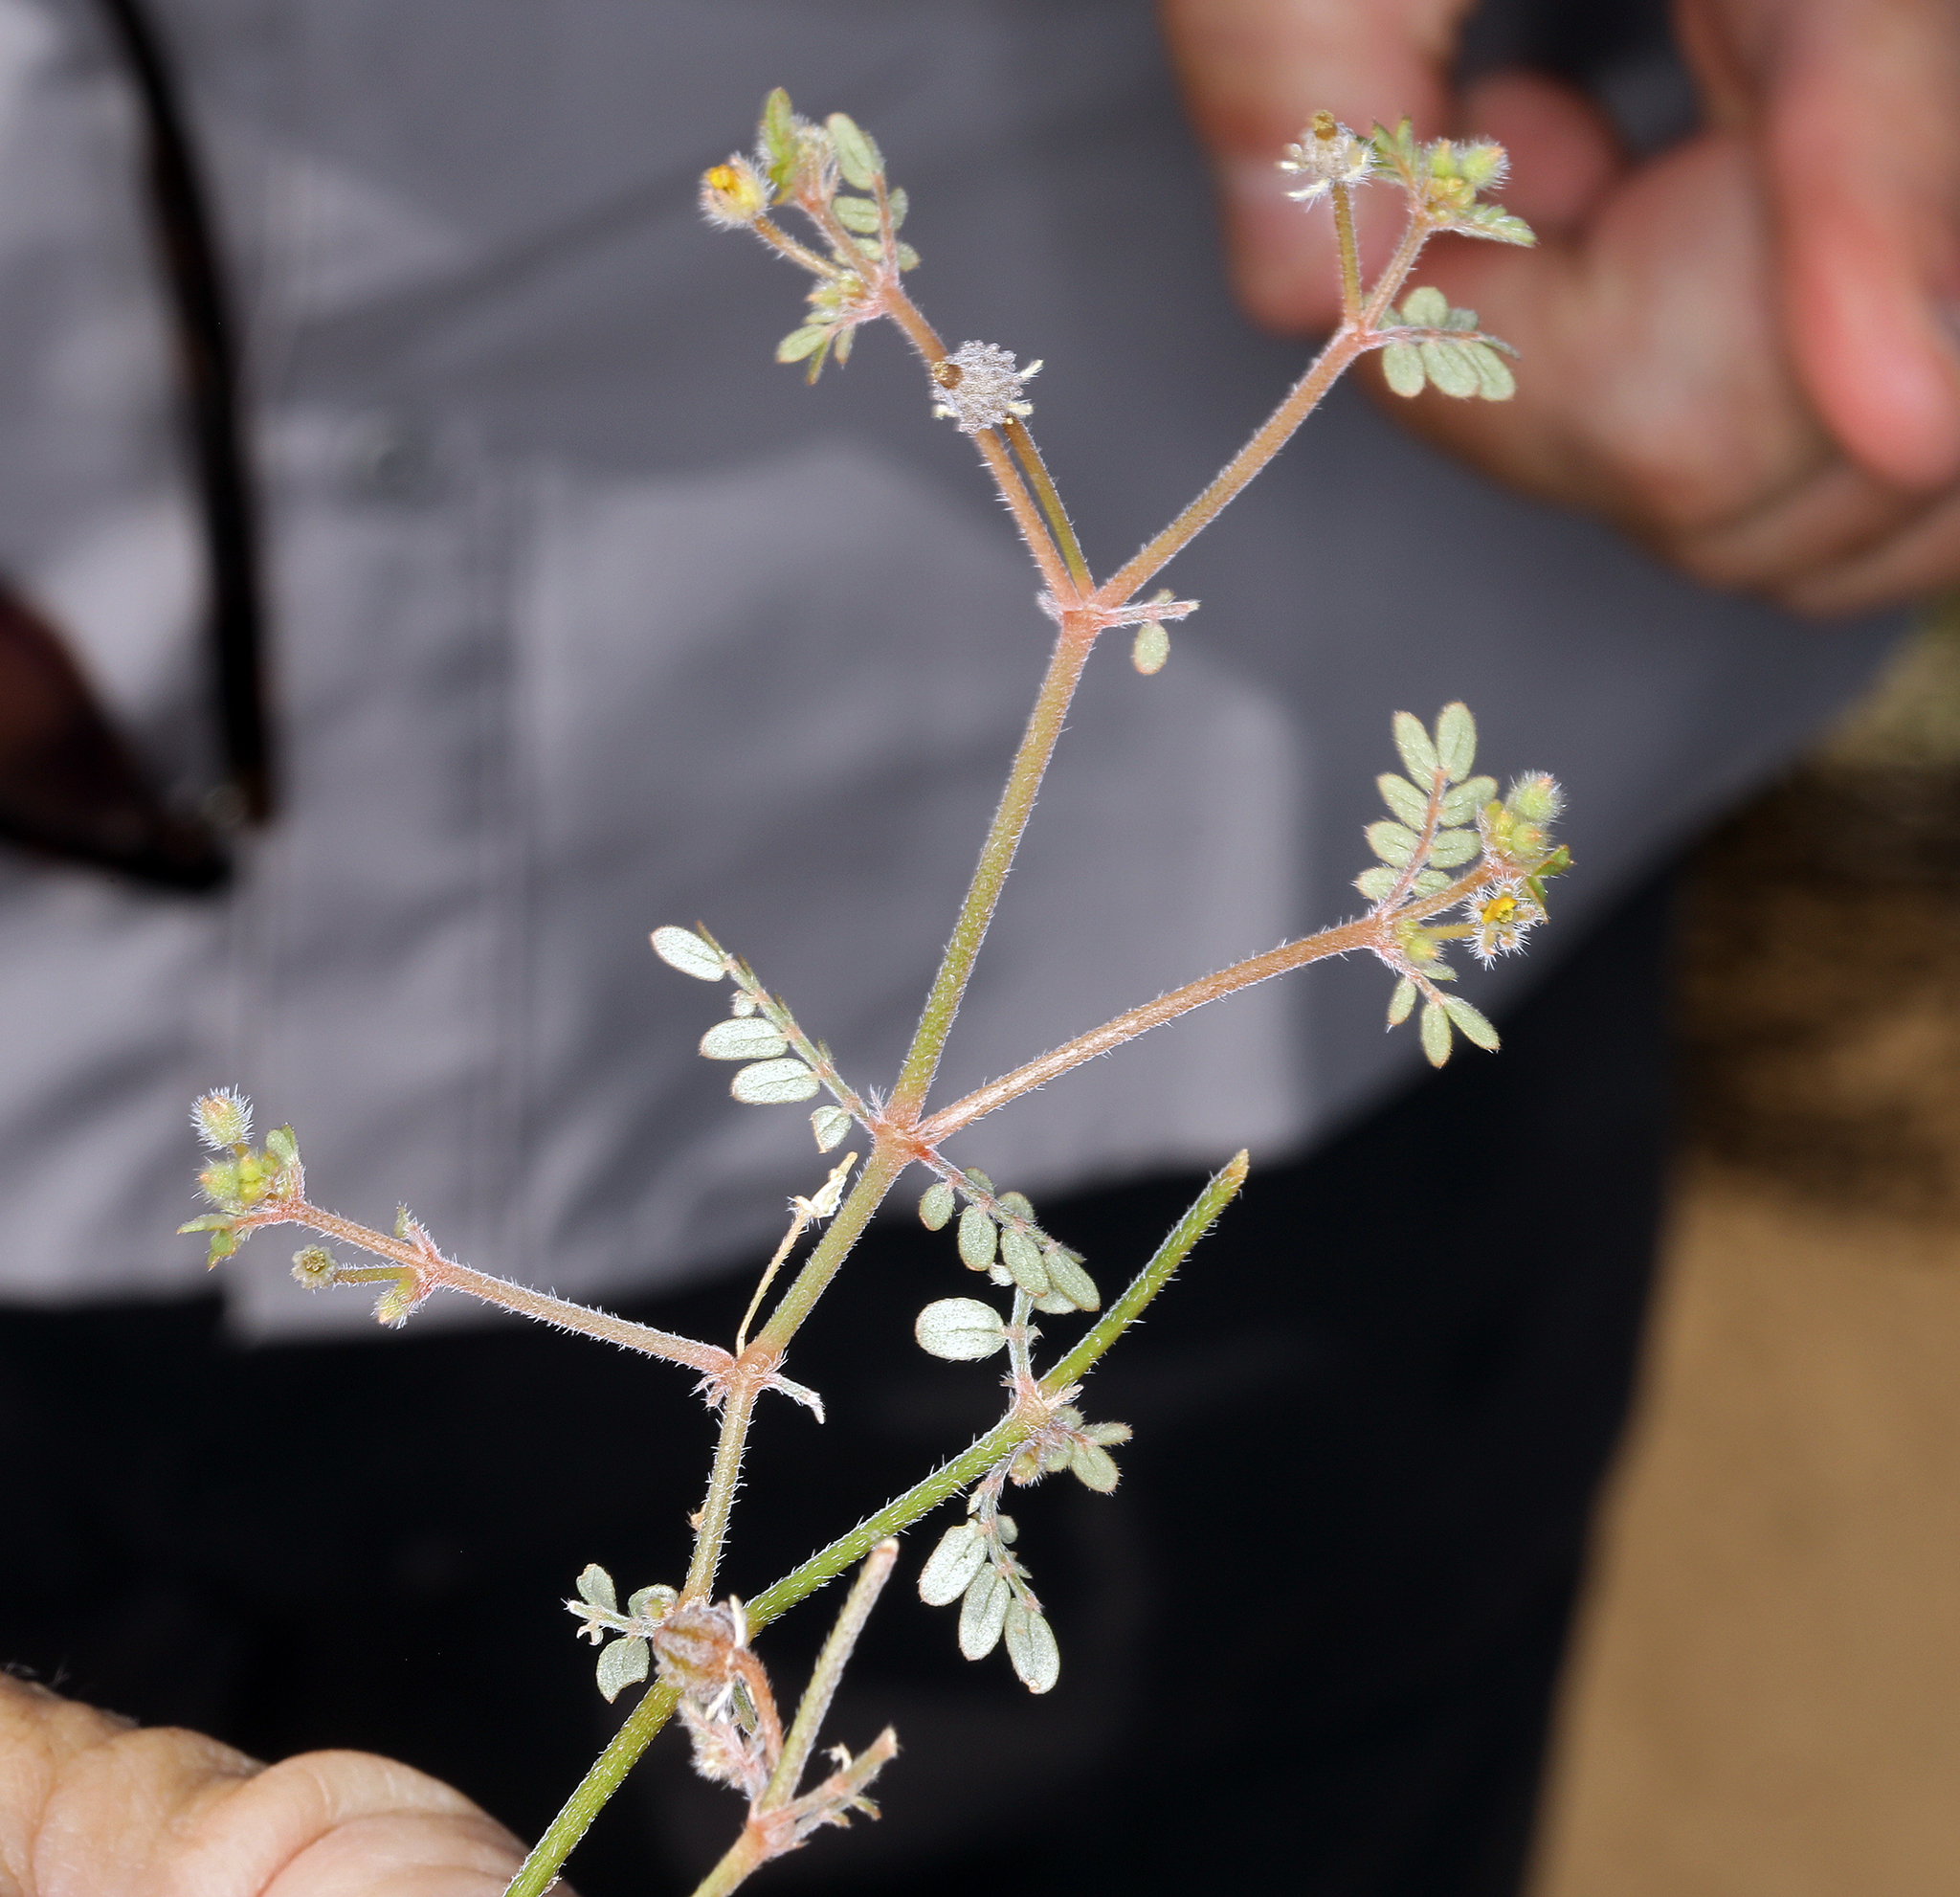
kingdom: Plantae
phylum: Tracheophyta
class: Magnoliopsida
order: Zygophyllales
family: Zygophyllaceae
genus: Kallstroemia
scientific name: Kallstroemia californica
